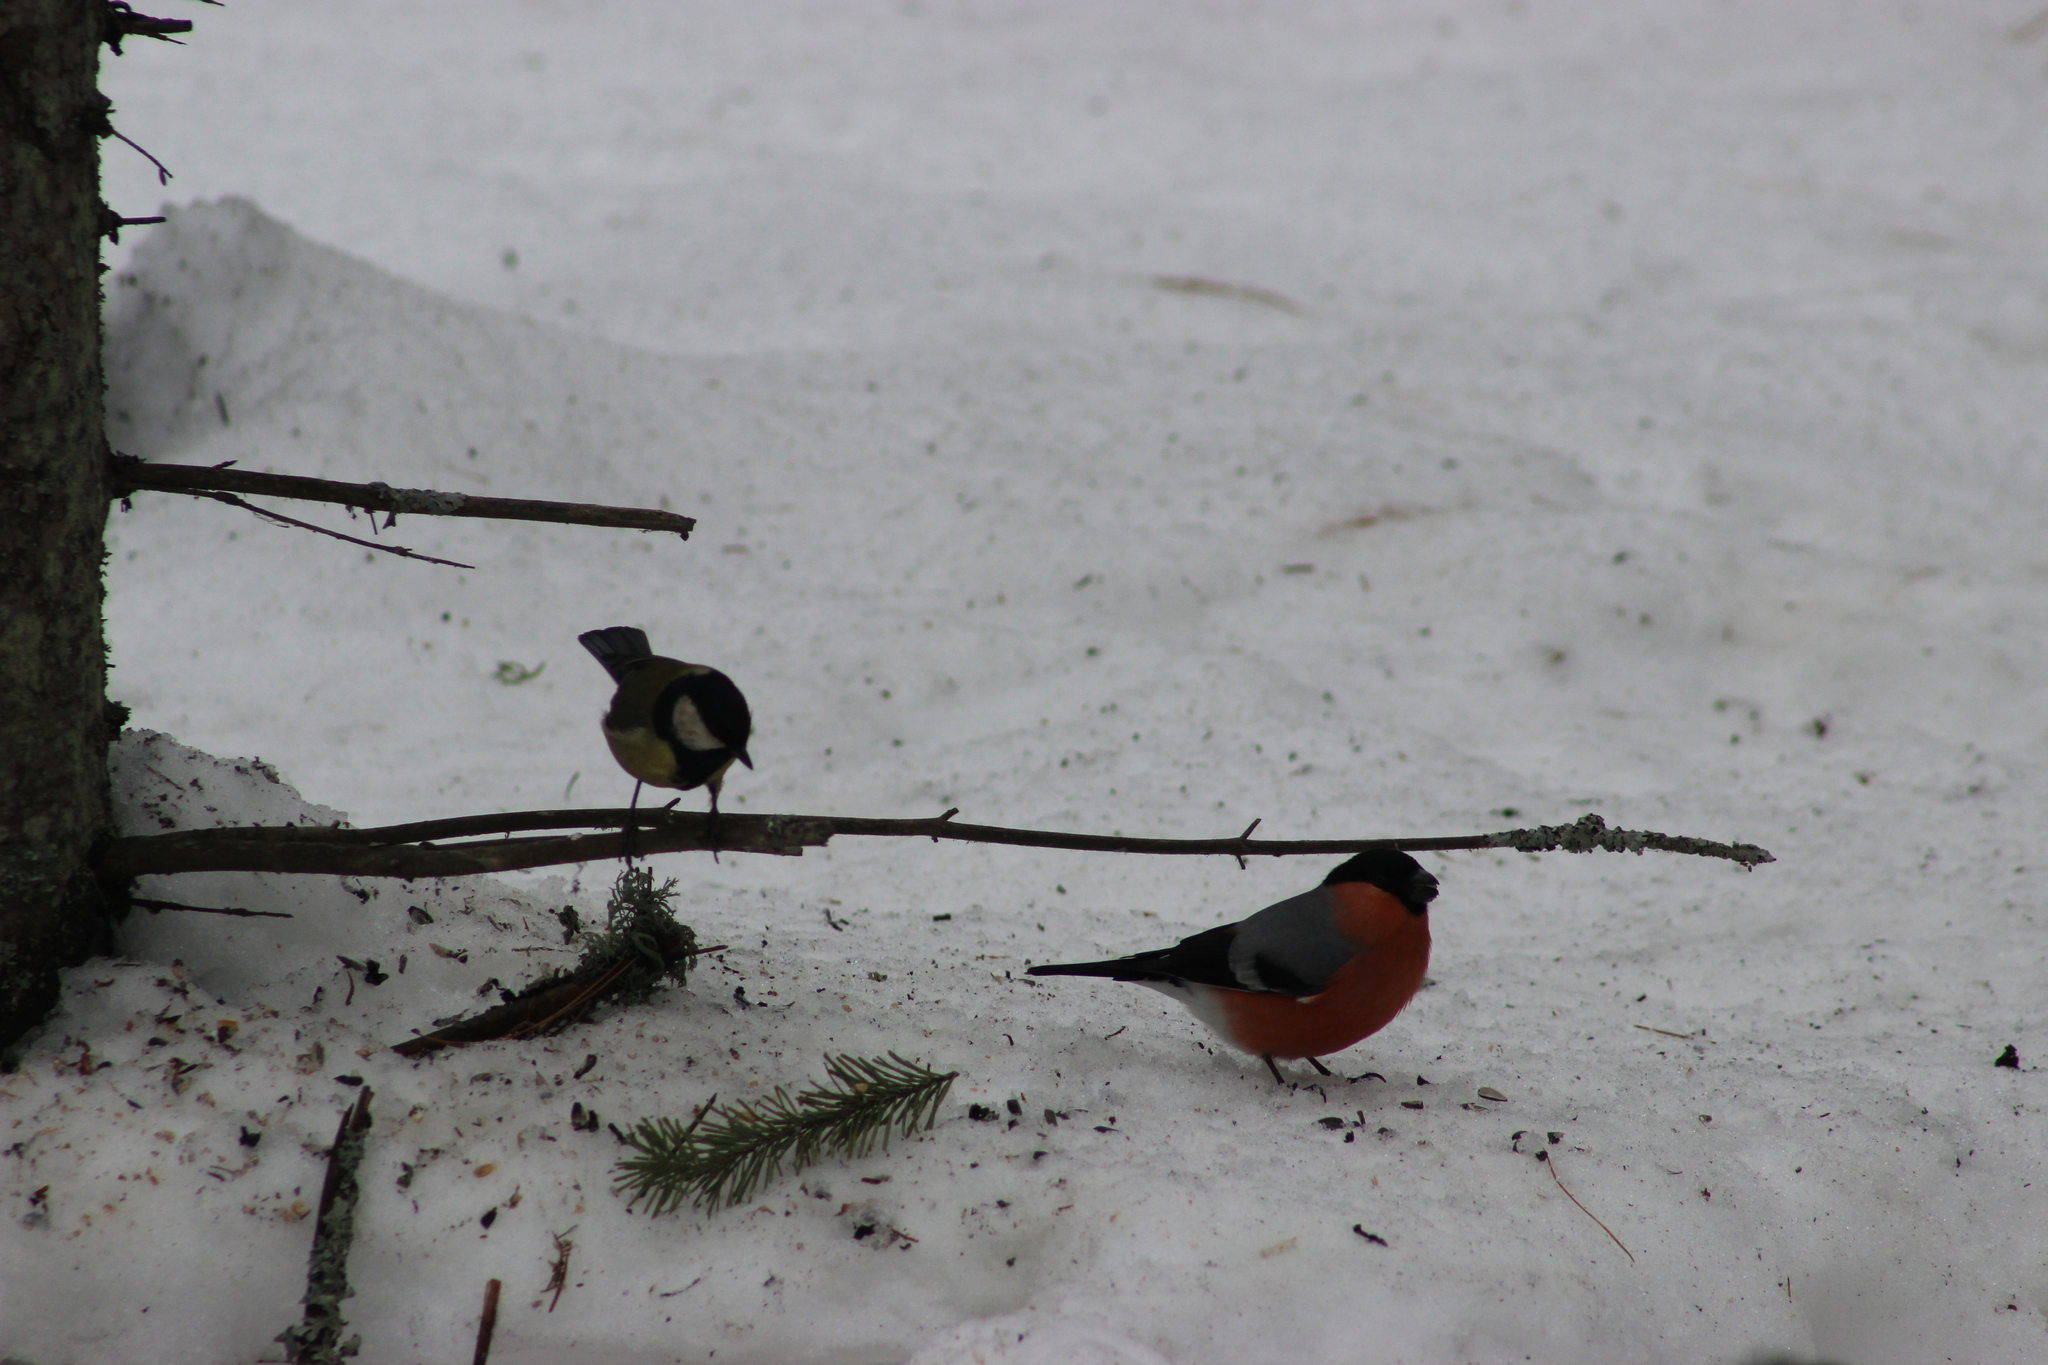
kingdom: Animalia
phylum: Chordata
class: Aves
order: Passeriformes
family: Fringillidae
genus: Pyrrhula
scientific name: Pyrrhula pyrrhula
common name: Eurasian bullfinch
